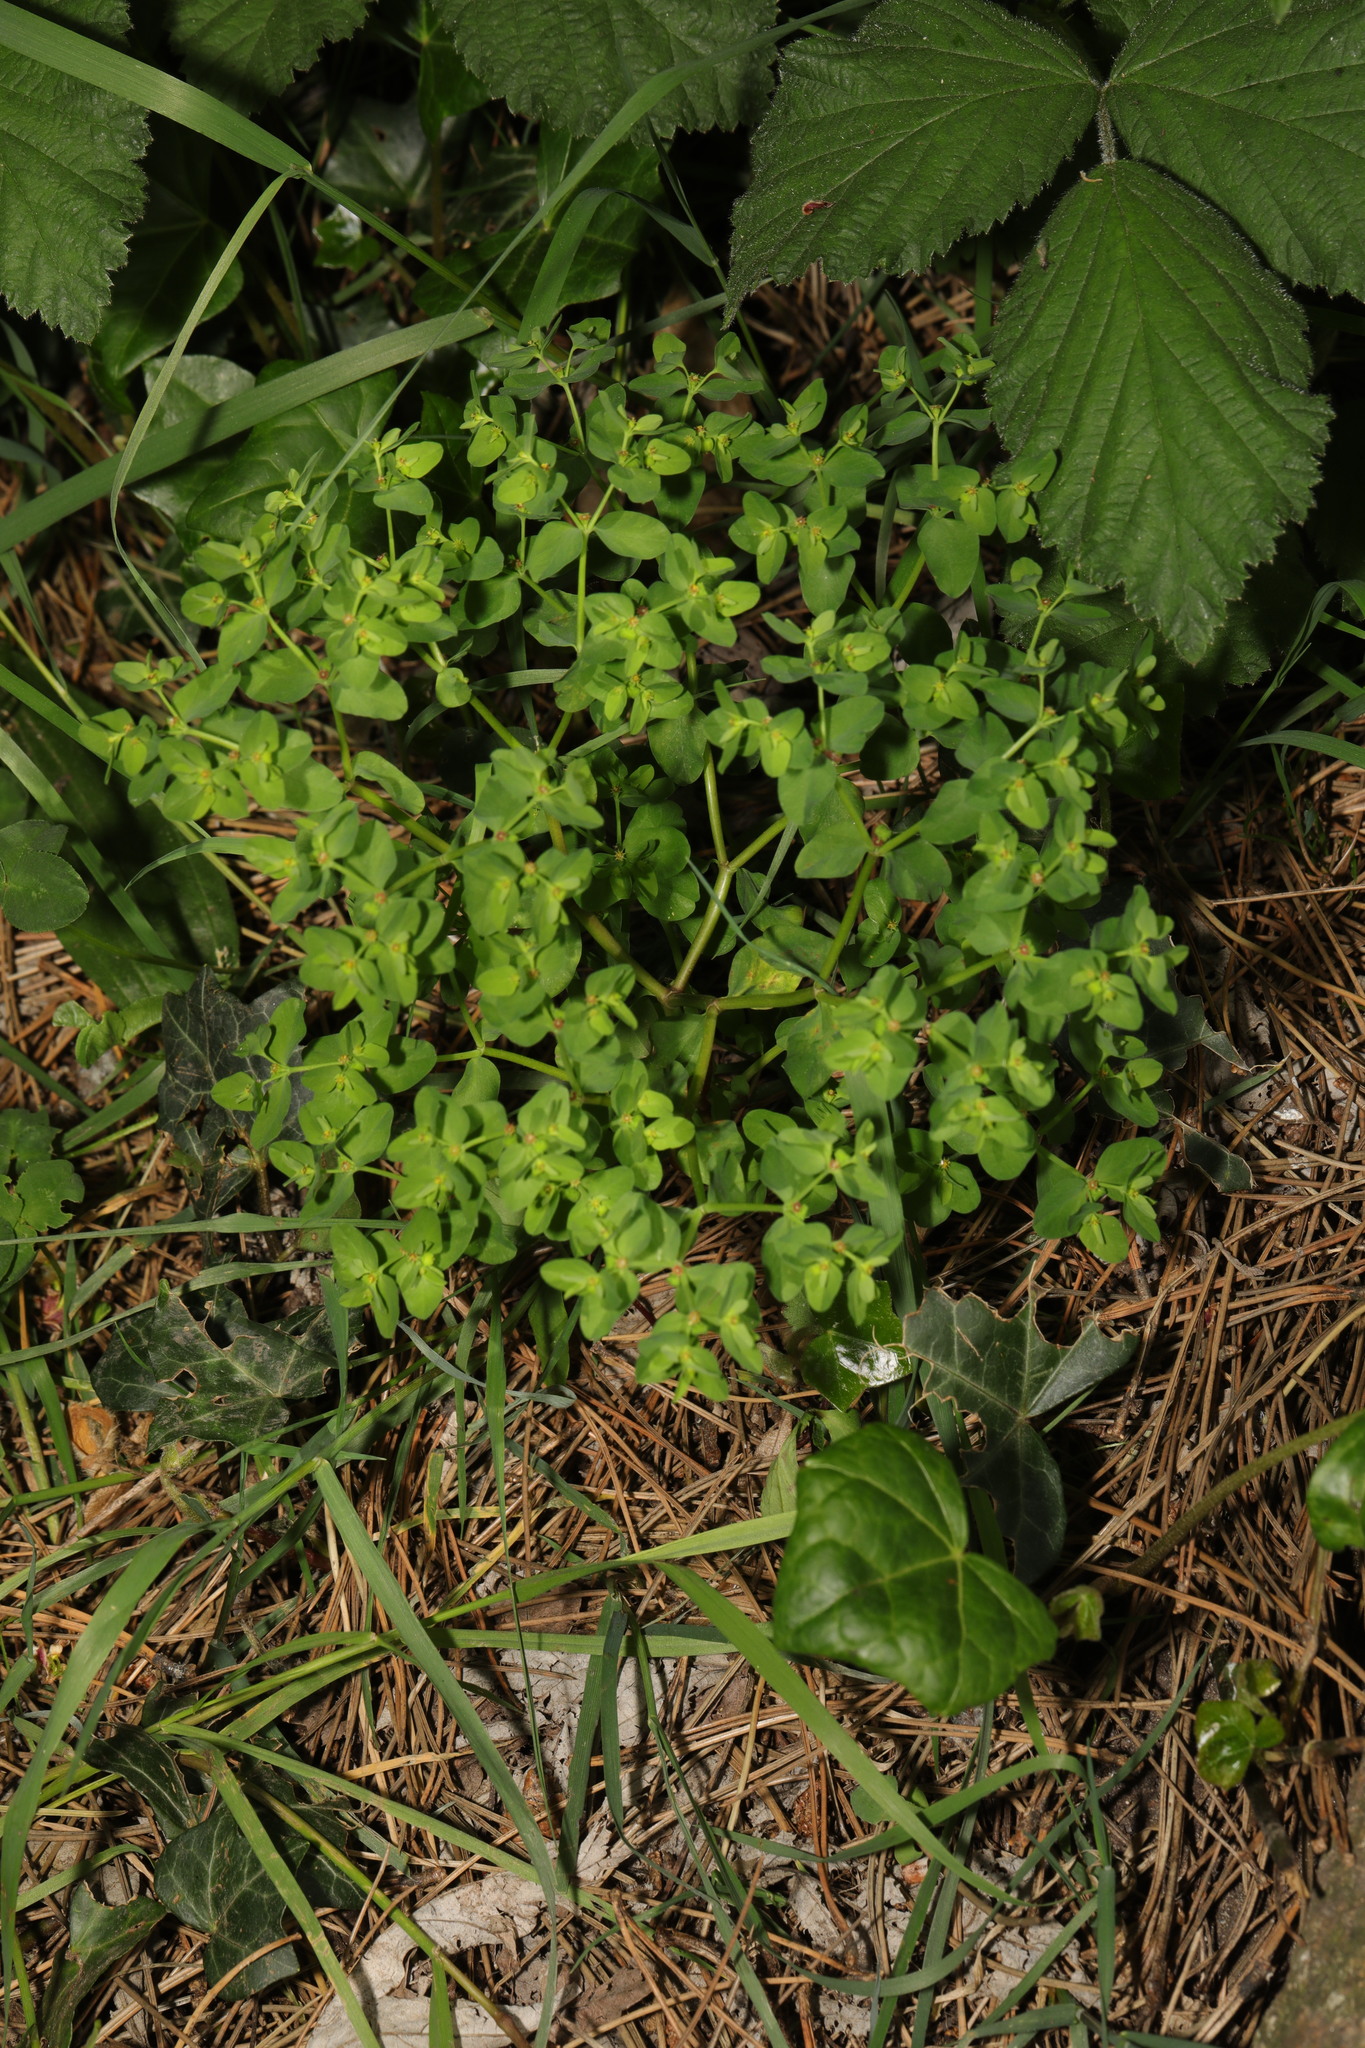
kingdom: Plantae
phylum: Tracheophyta
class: Magnoliopsida
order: Malpighiales
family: Euphorbiaceae
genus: Euphorbia
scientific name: Euphorbia peplus
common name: Petty spurge
